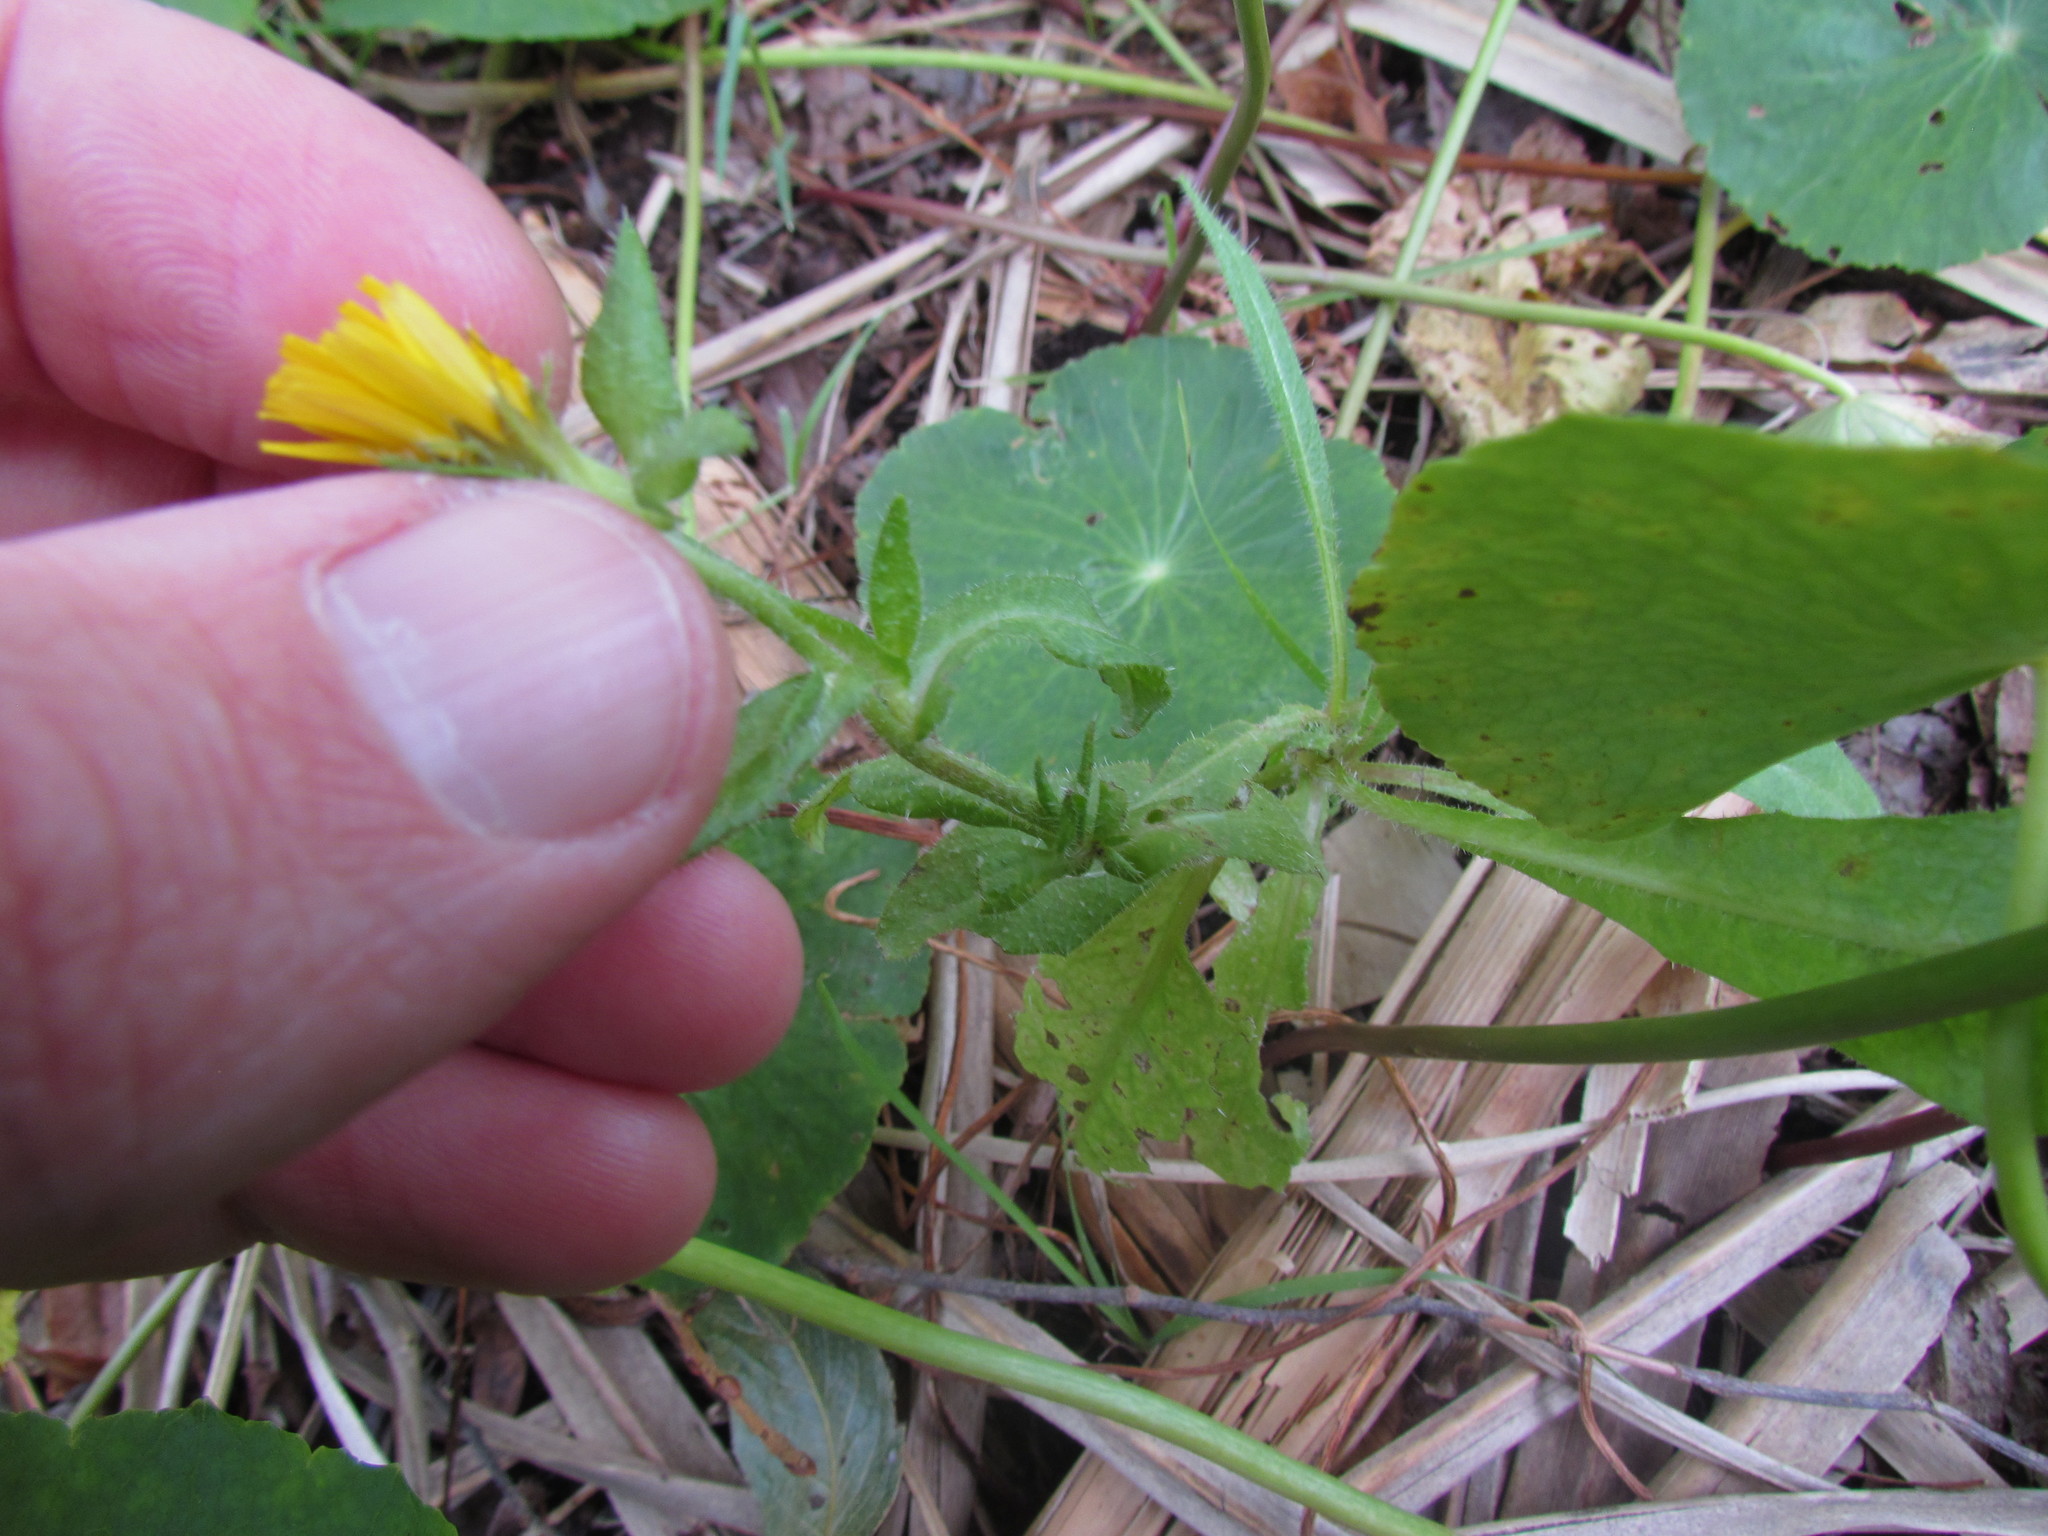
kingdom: Plantae
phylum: Tracheophyta
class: Magnoliopsida
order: Asterales
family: Asteraceae
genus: Helminthotheca
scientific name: Helminthotheca echioides
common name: Ox-tongue
